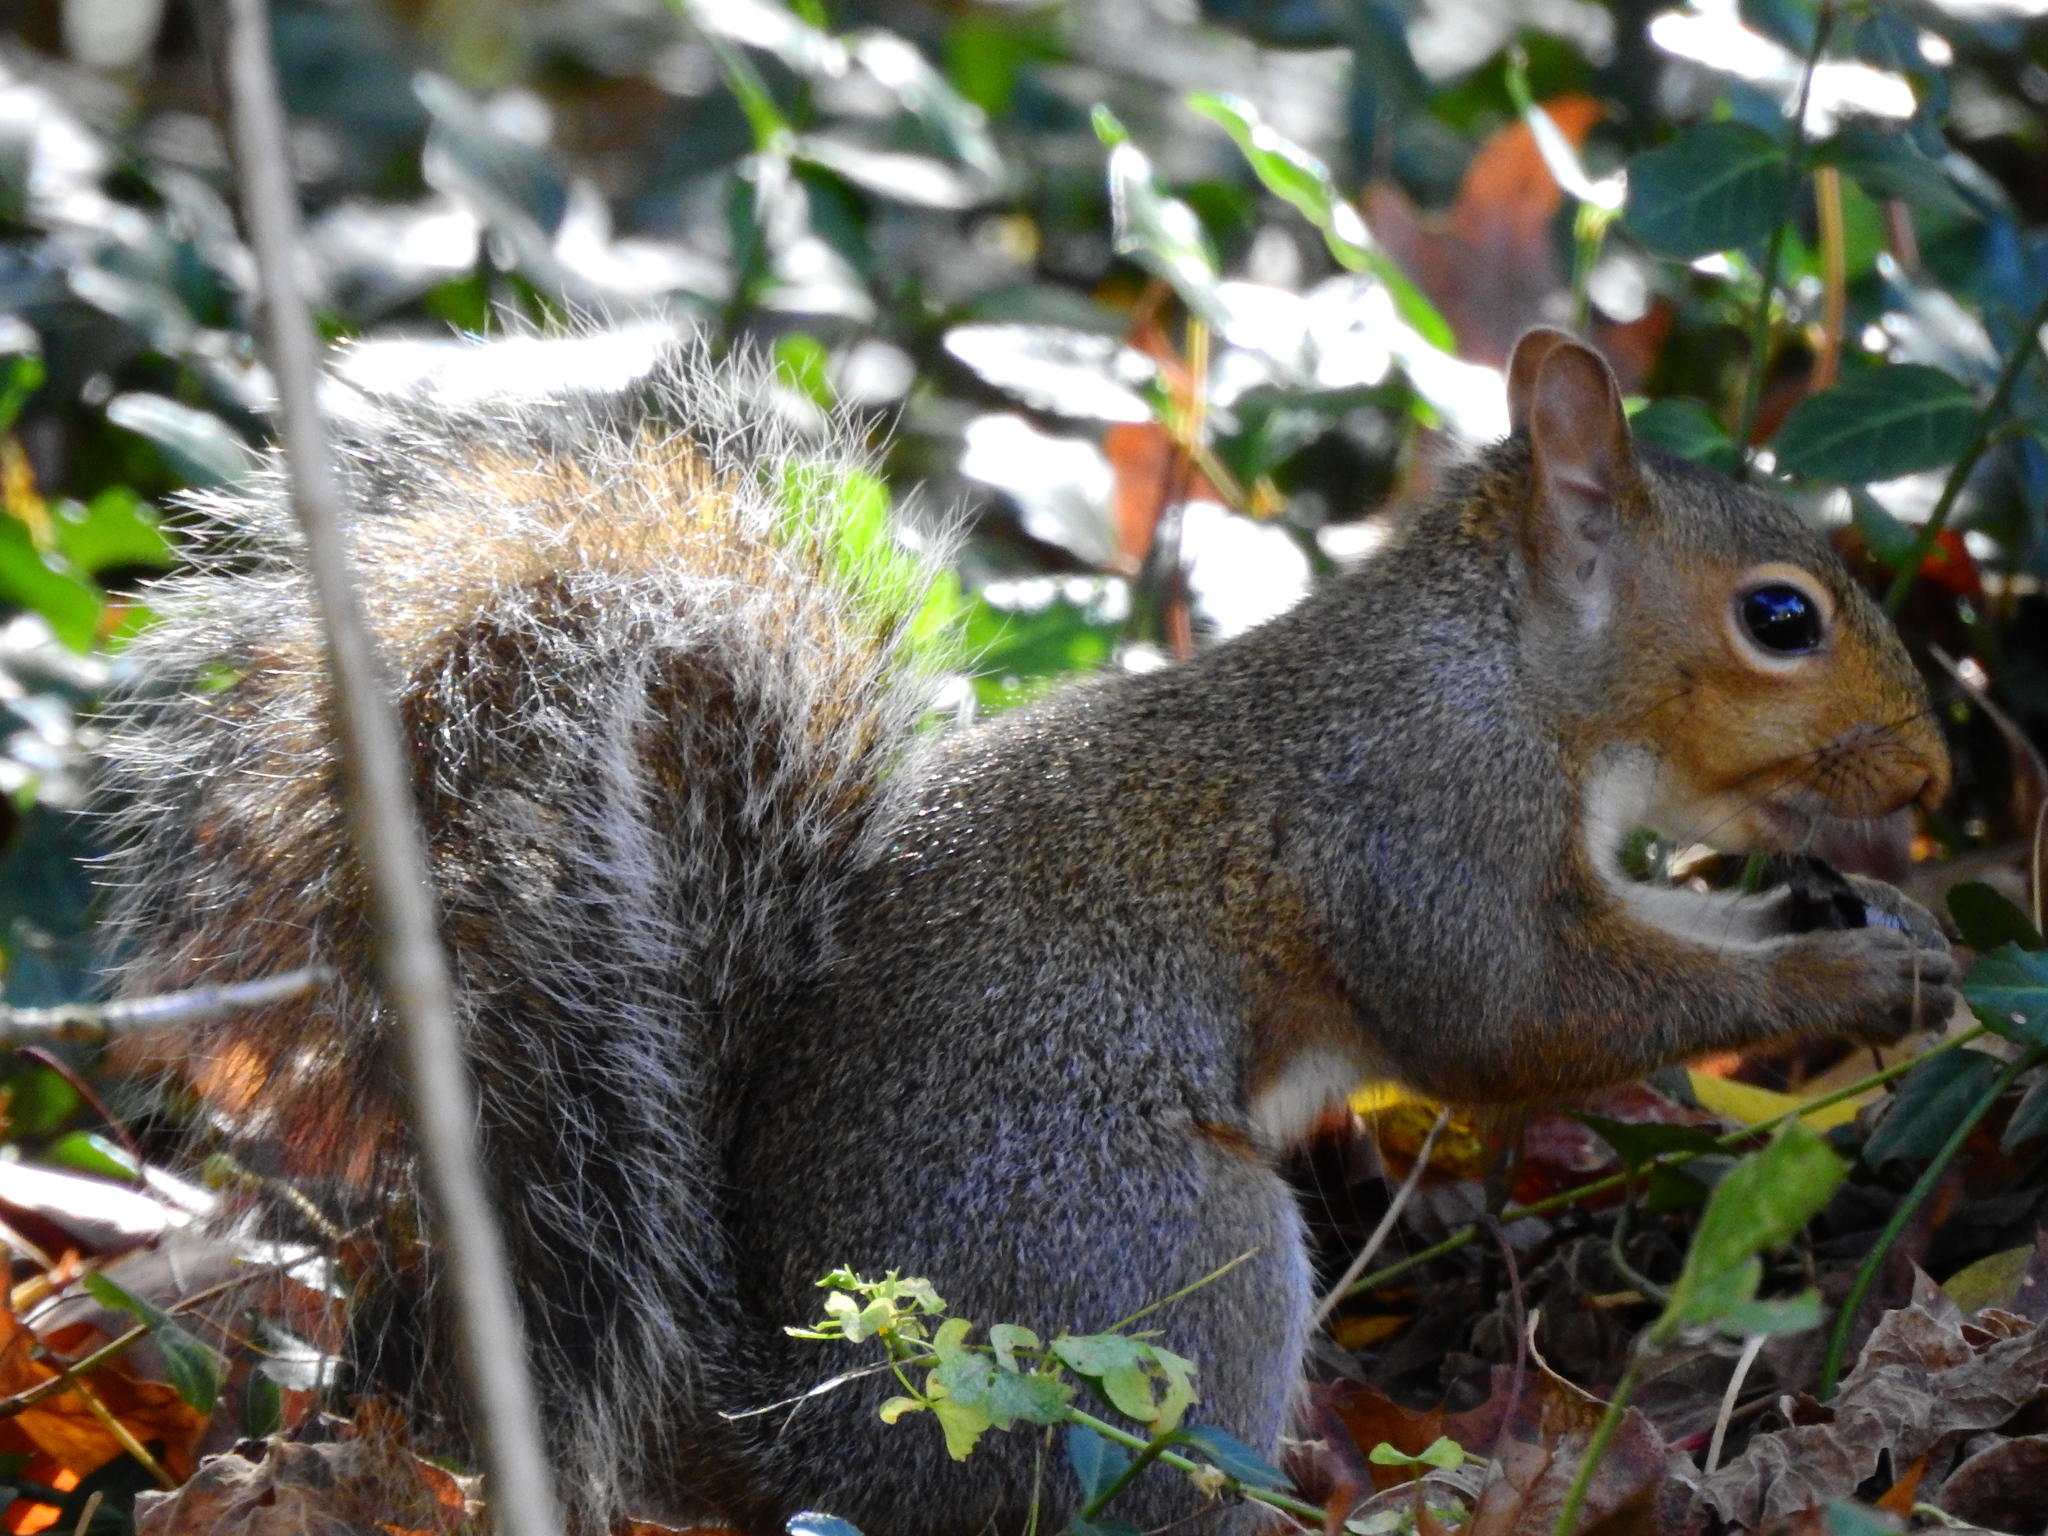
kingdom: Animalia
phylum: Chordata
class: Mammalia
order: Rodentia
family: Sciuridae
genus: Sciurus
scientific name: Sciurus carolinensis
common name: Eastern gray squirrel
